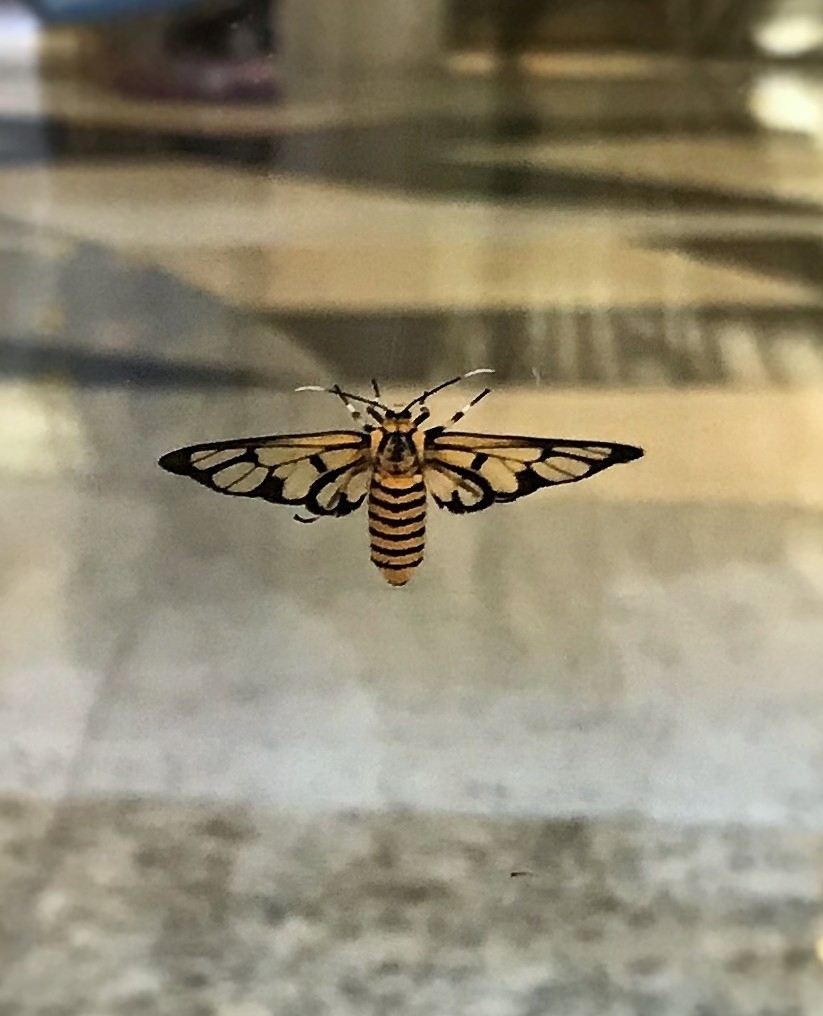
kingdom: Animalia
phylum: Arthropoda
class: Insecta
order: Lepidoptera
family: Erebidae
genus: Amata
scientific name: Amata grotei
